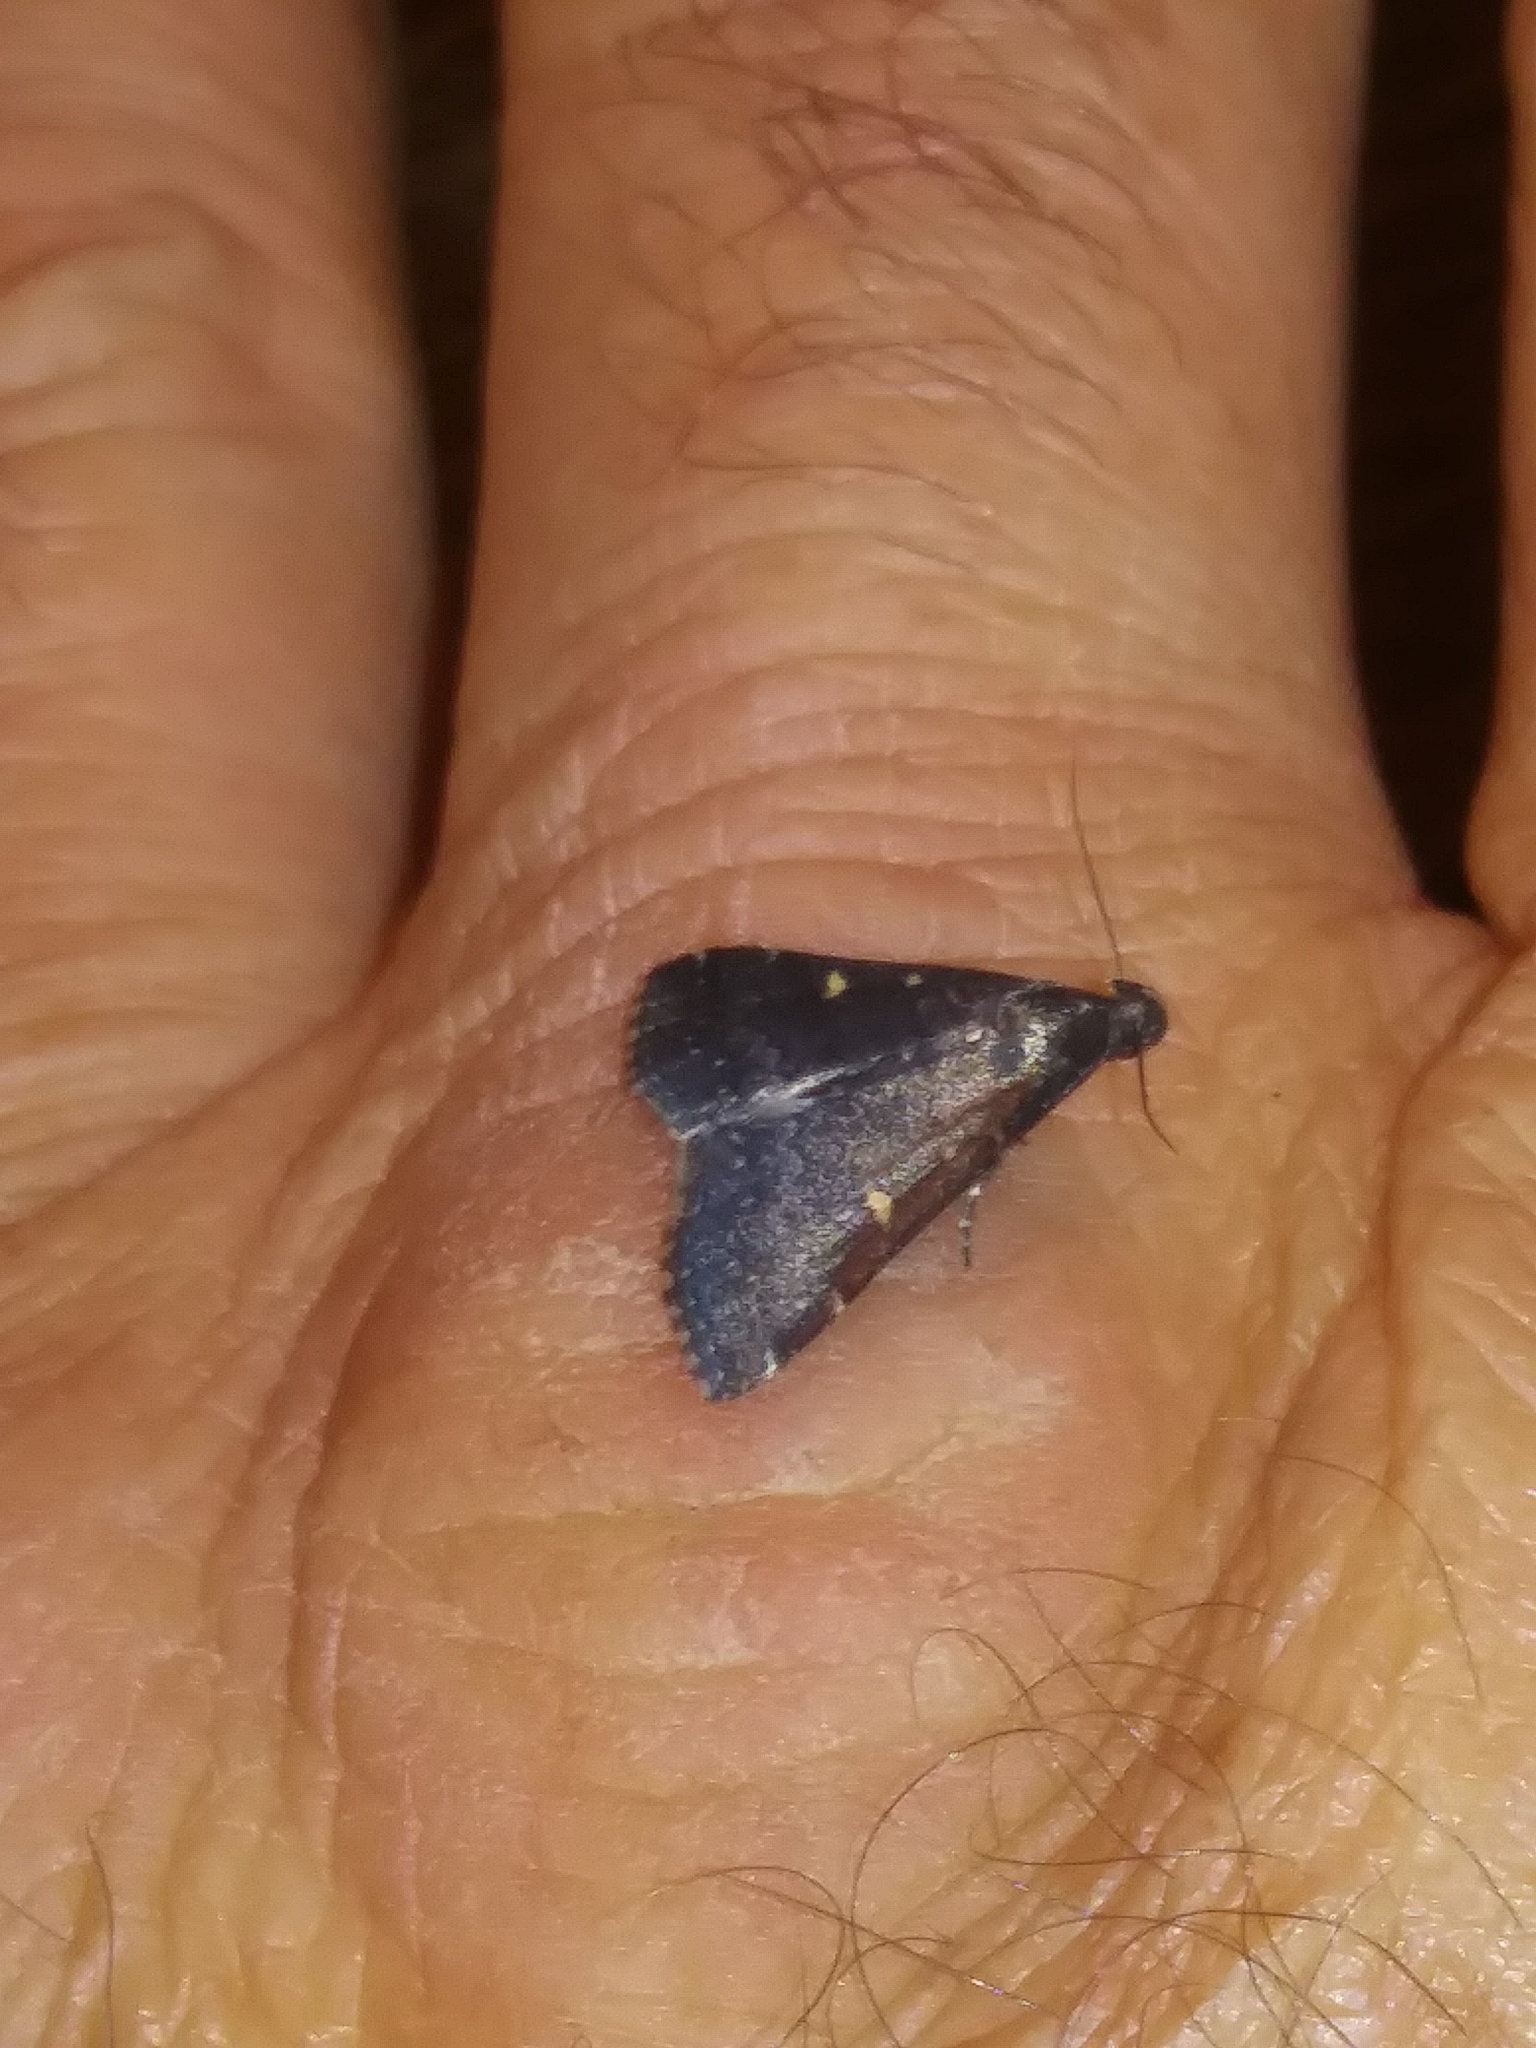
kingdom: Animalia
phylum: Arthropoda
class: Insecta
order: Lepidoptera
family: Erebidae
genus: Tetanolita
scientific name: Tetanolita mynesalis
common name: Smoky tetanolita moth
